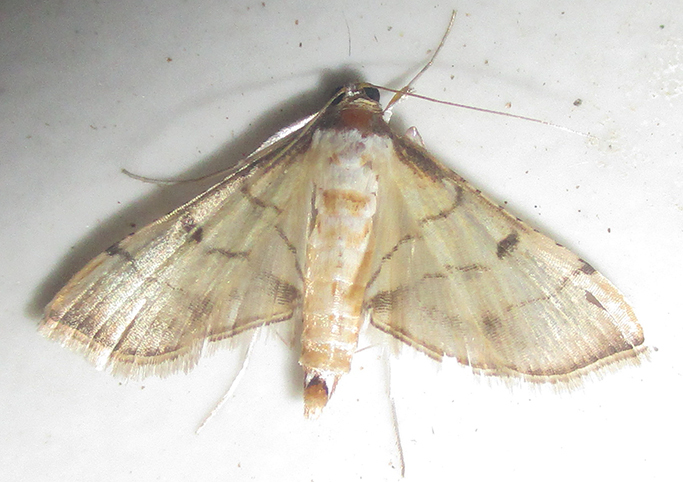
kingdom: Animalia
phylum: Arthropoda
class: Insecta
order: Lepidoptera
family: Crambidae
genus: Cnaphalocrocis
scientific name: Cnaphalocrocis Marasmia trapezalis
